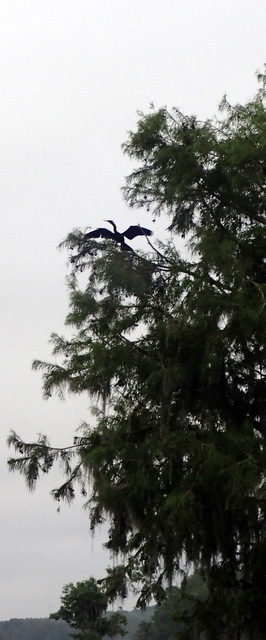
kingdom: Animalia
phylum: Chordata
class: Aves
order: Suliformes
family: Anhingidae
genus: Anhinga
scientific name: Anhinga anhinga
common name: Anhinga
